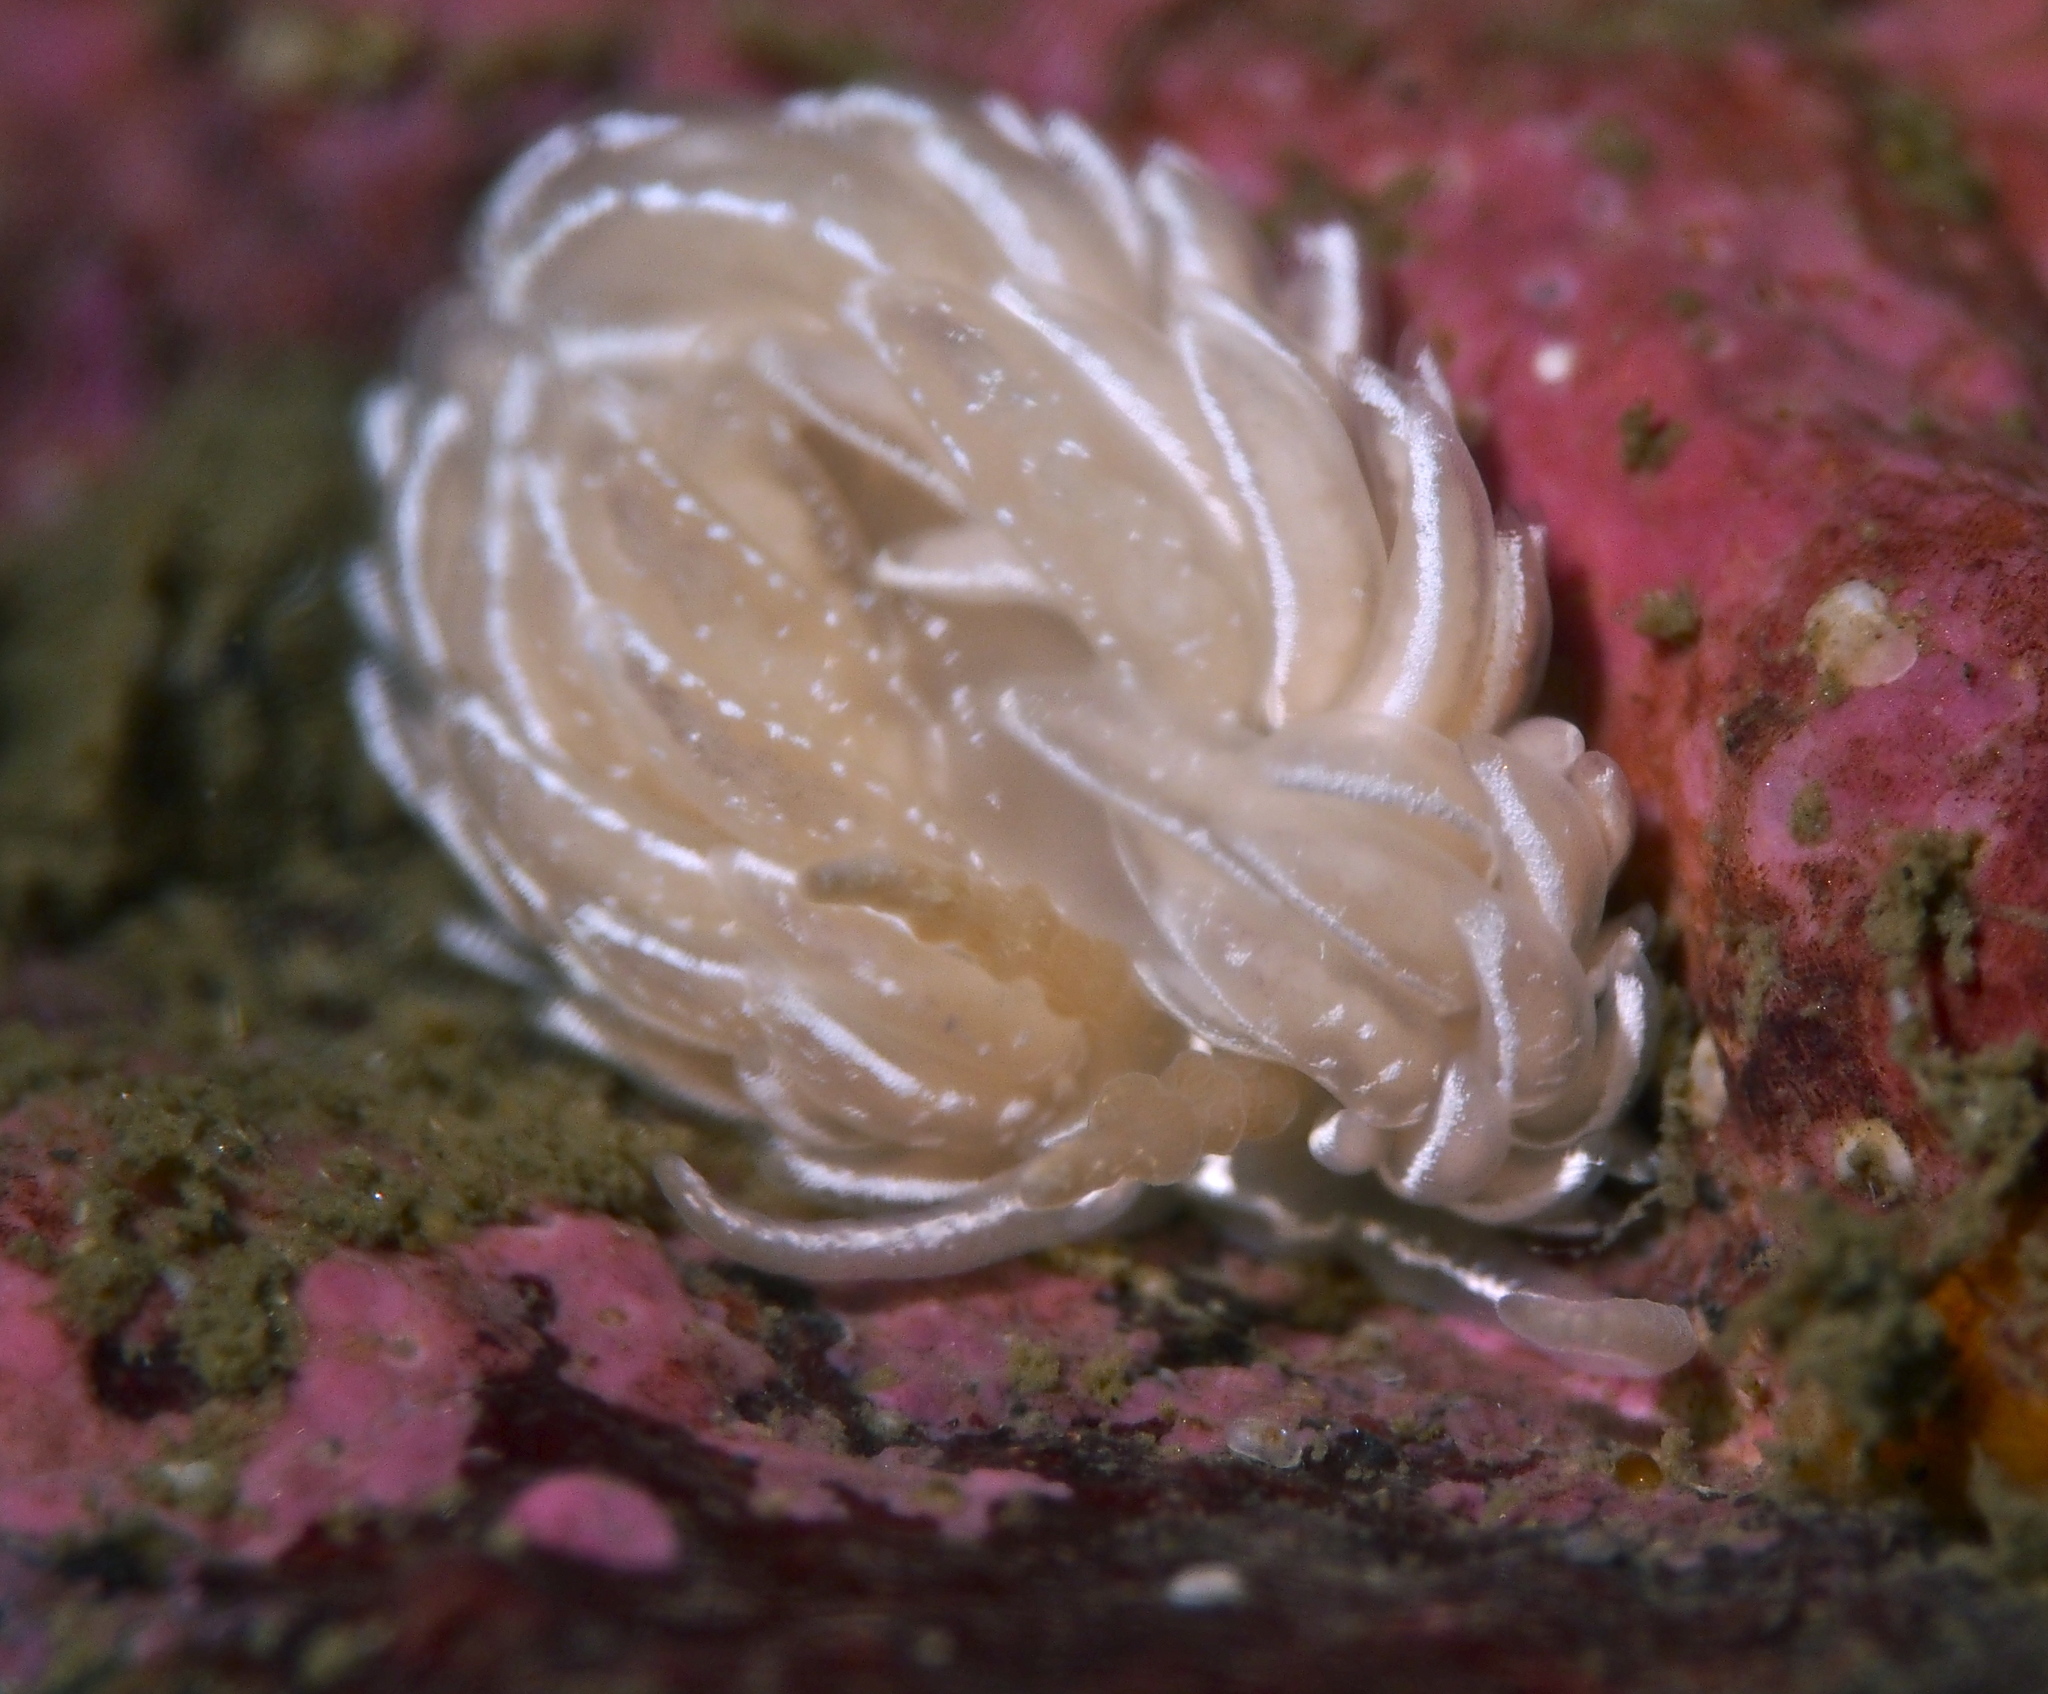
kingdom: Animalia
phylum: Mollusca
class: Gastropoda
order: Nudibranchia
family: Facelinidae
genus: Favorinus
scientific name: Favorinus blianus
